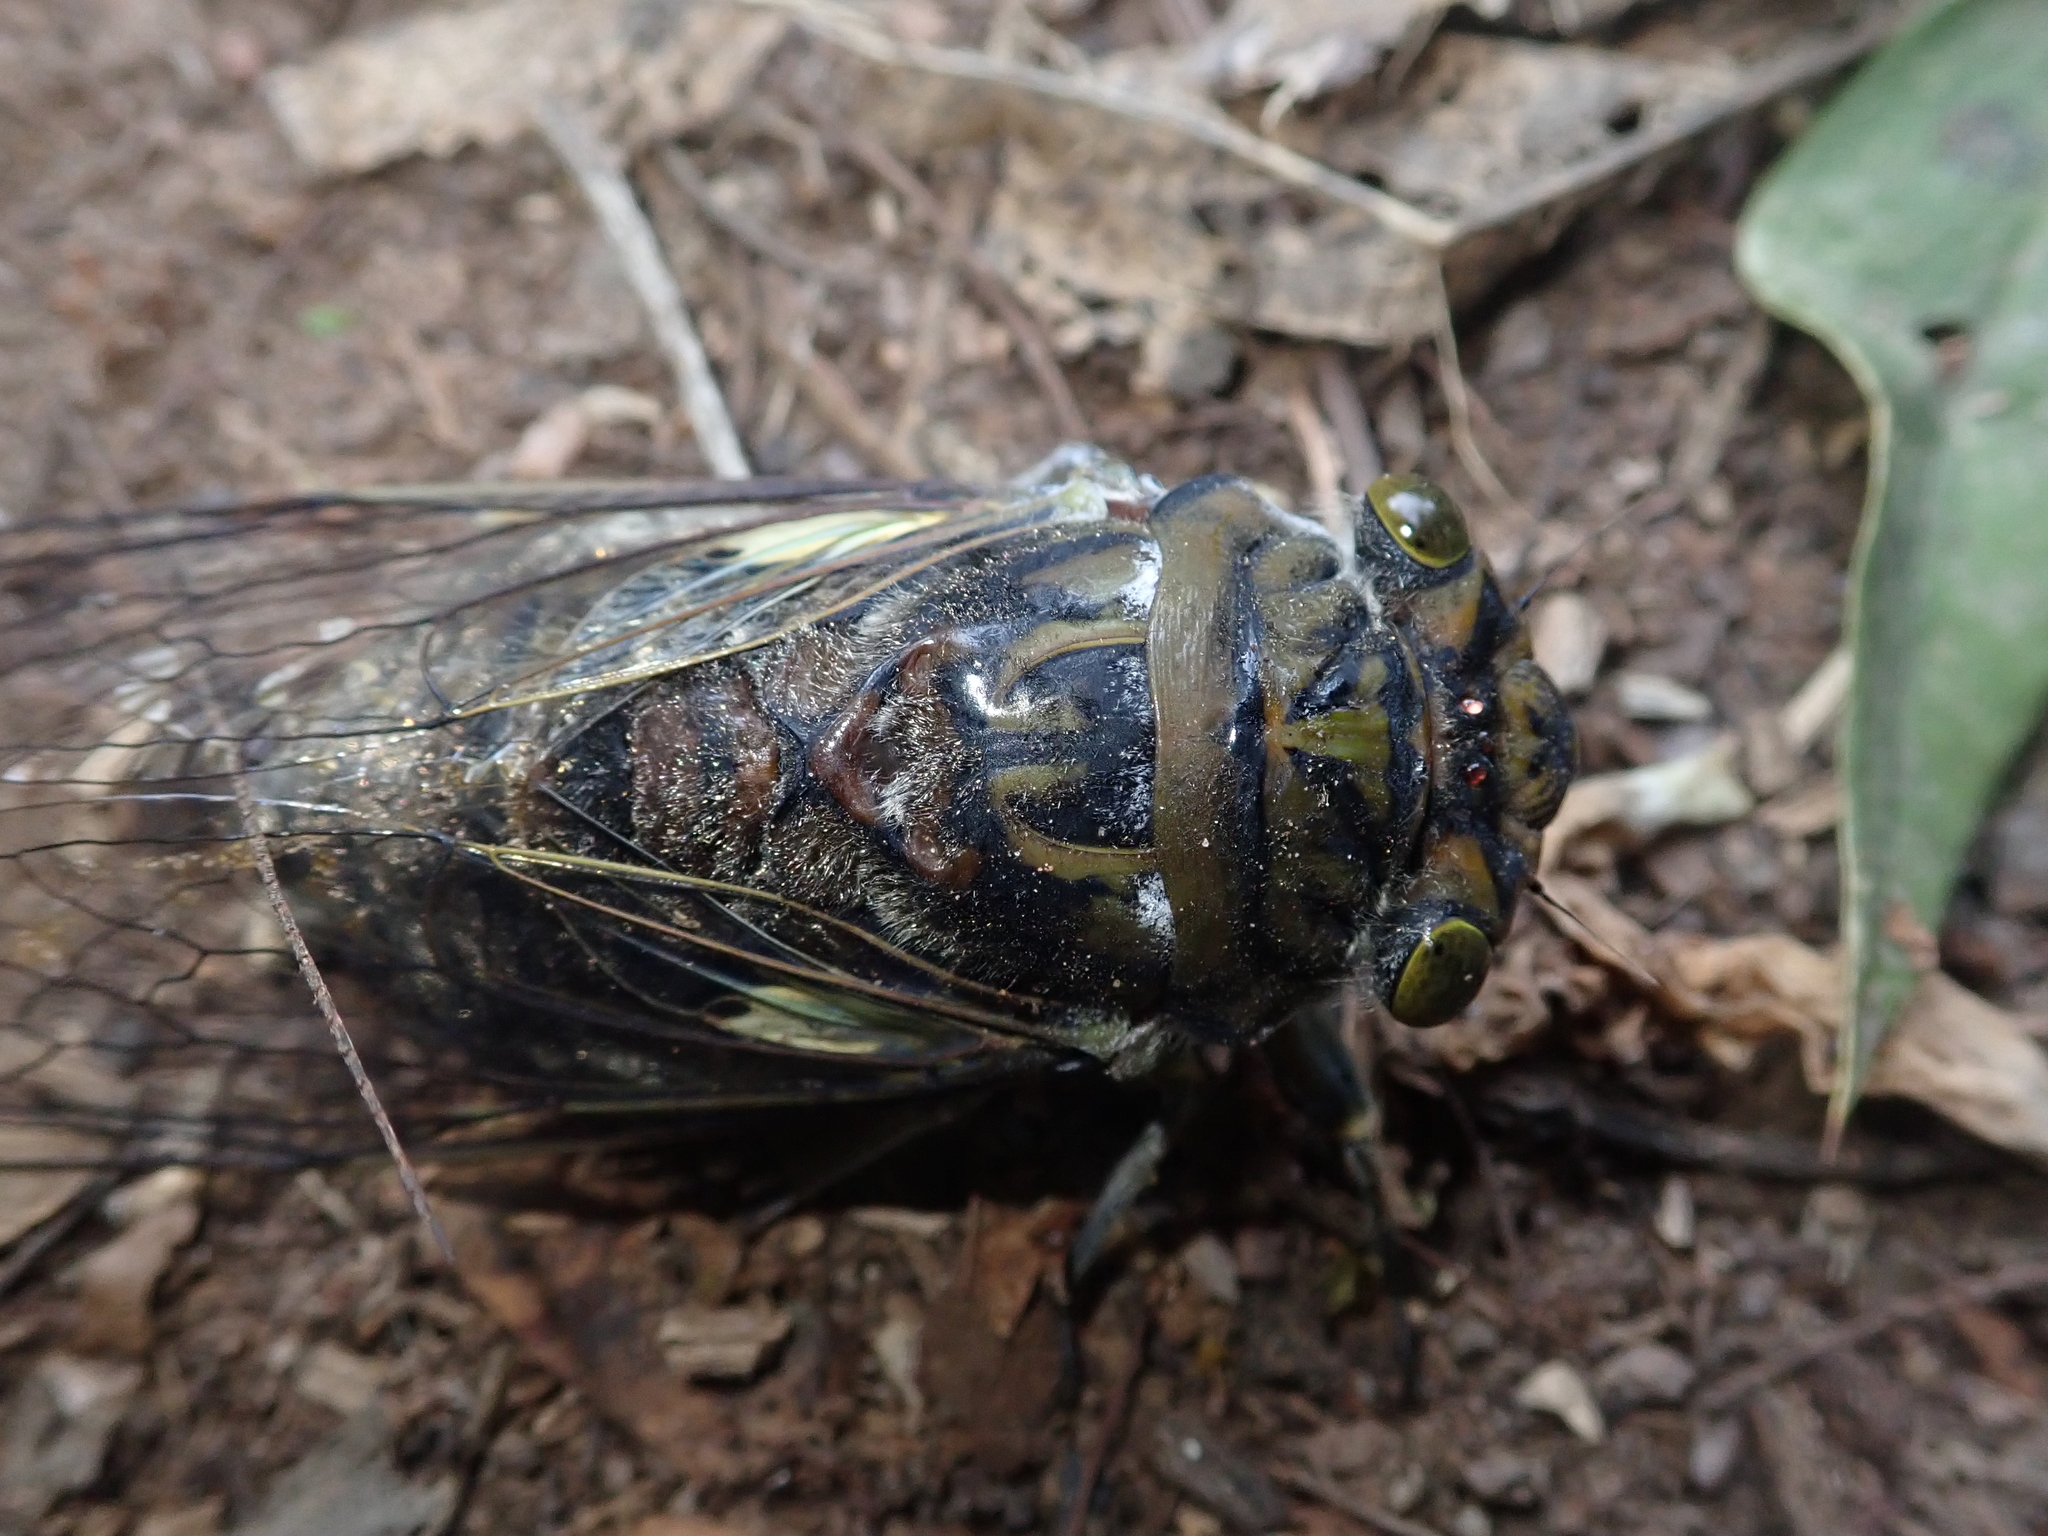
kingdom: Animalia
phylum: Arthropoda
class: Insecta
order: Hemiptera
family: Cicadidae
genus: Quesada
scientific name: Quesada gigas
